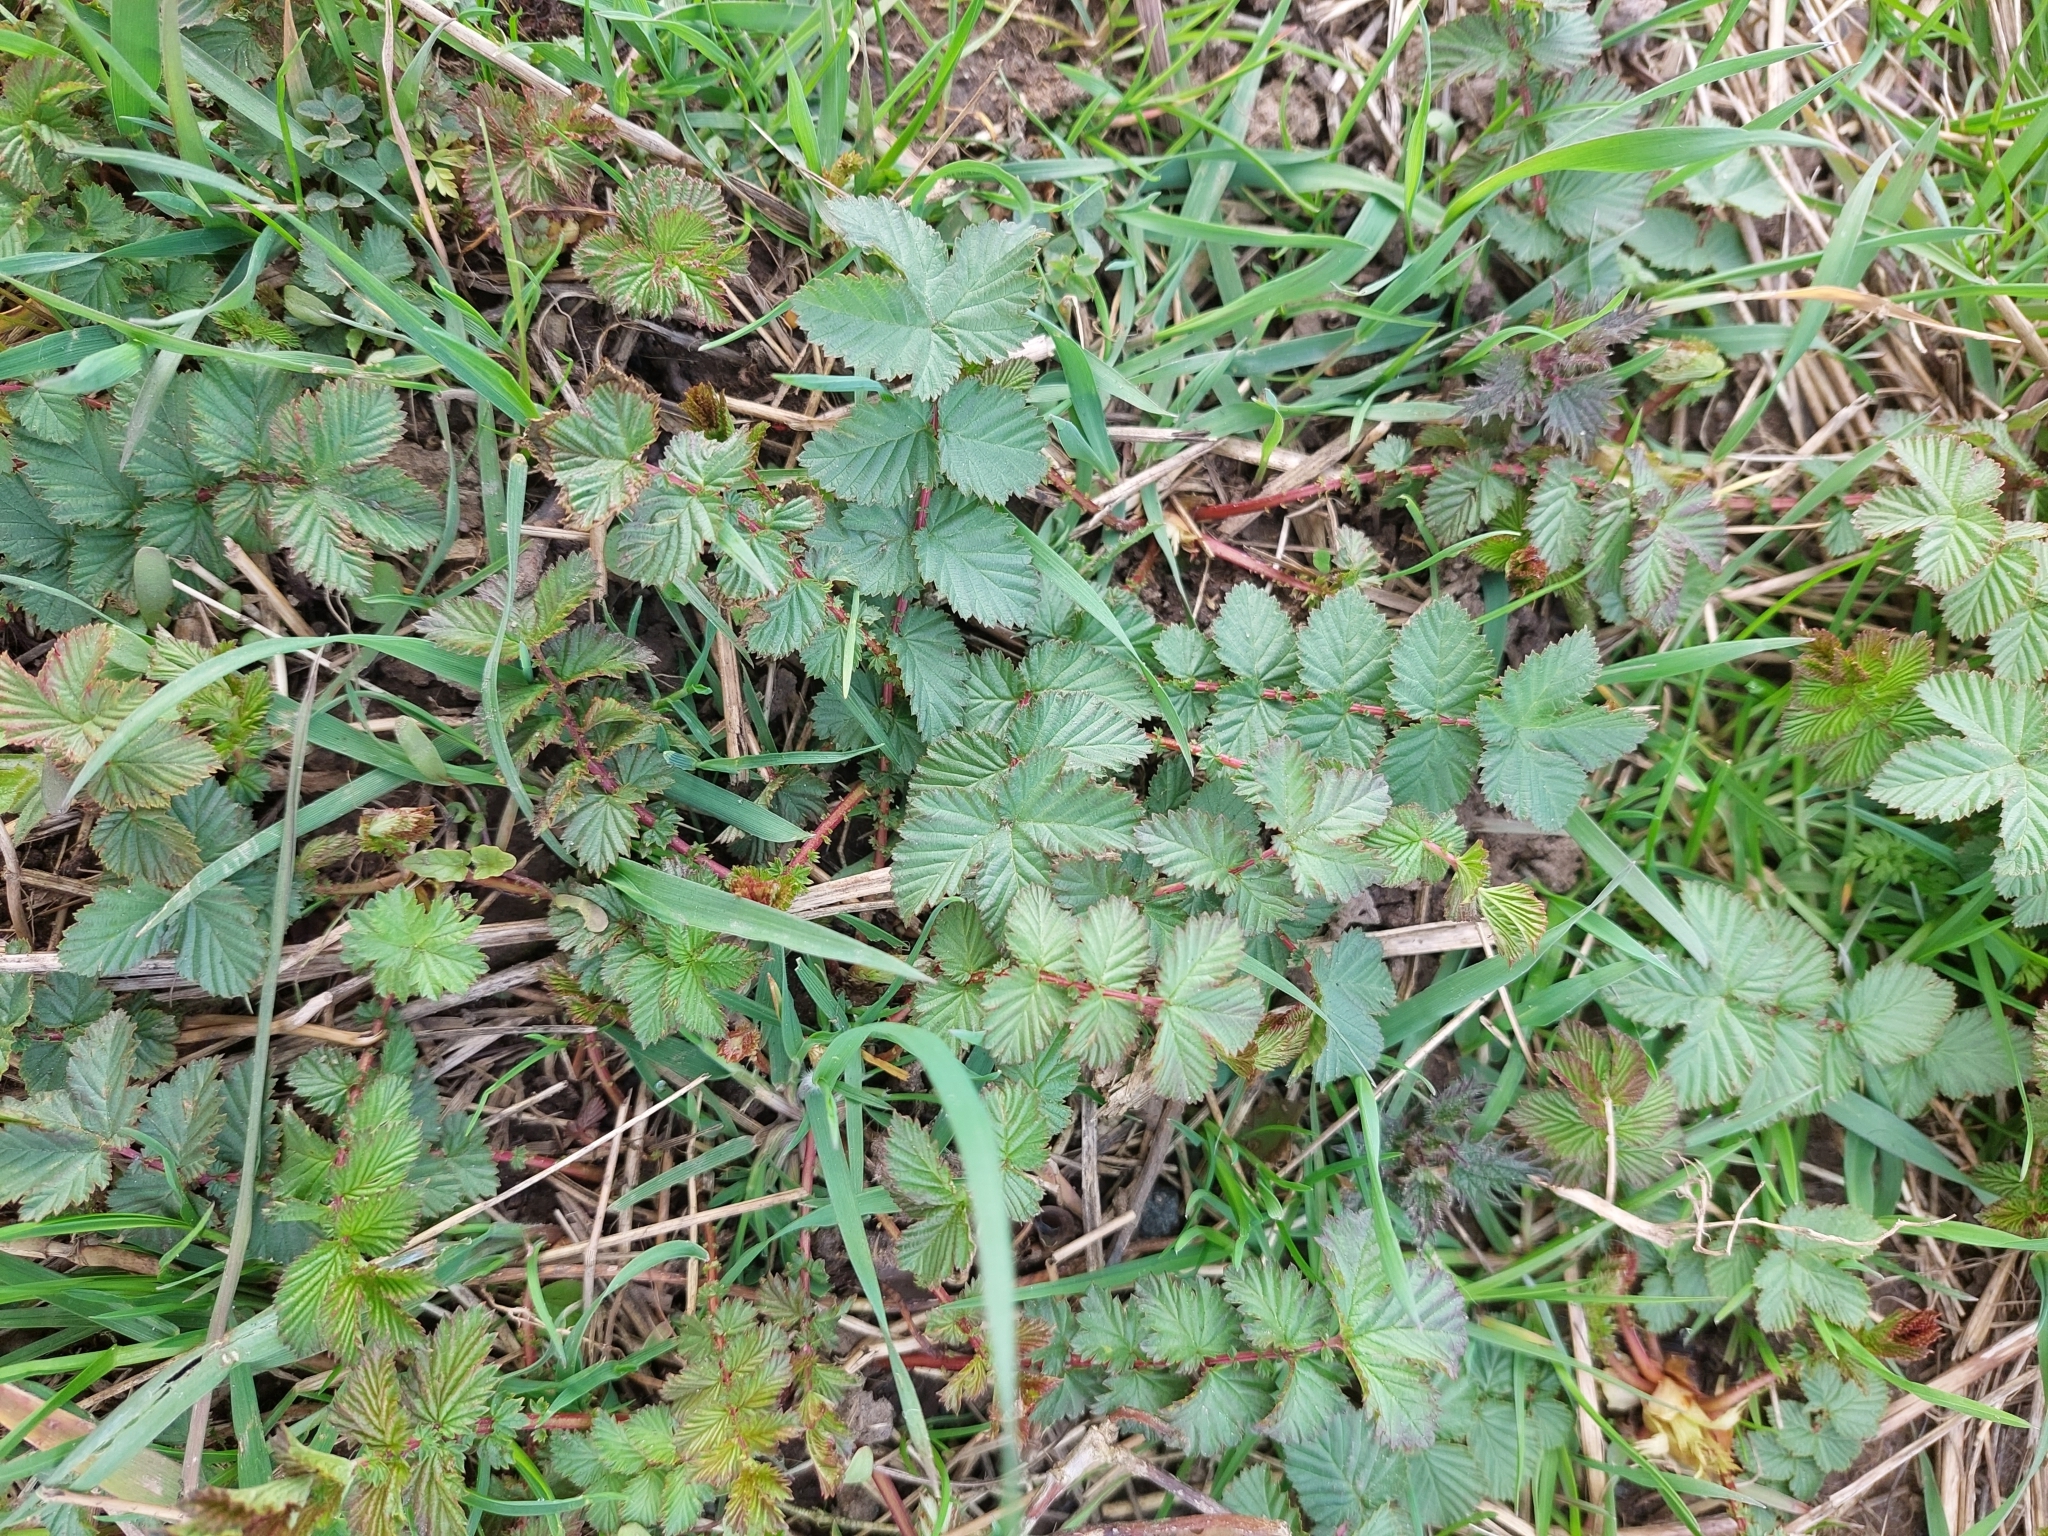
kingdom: Plantae
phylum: Tracheophyta
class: Magnoliopsida
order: Rosales
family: Rosaceae
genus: Filipendula
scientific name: Filipendula ulmaria
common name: Meadowsweet
